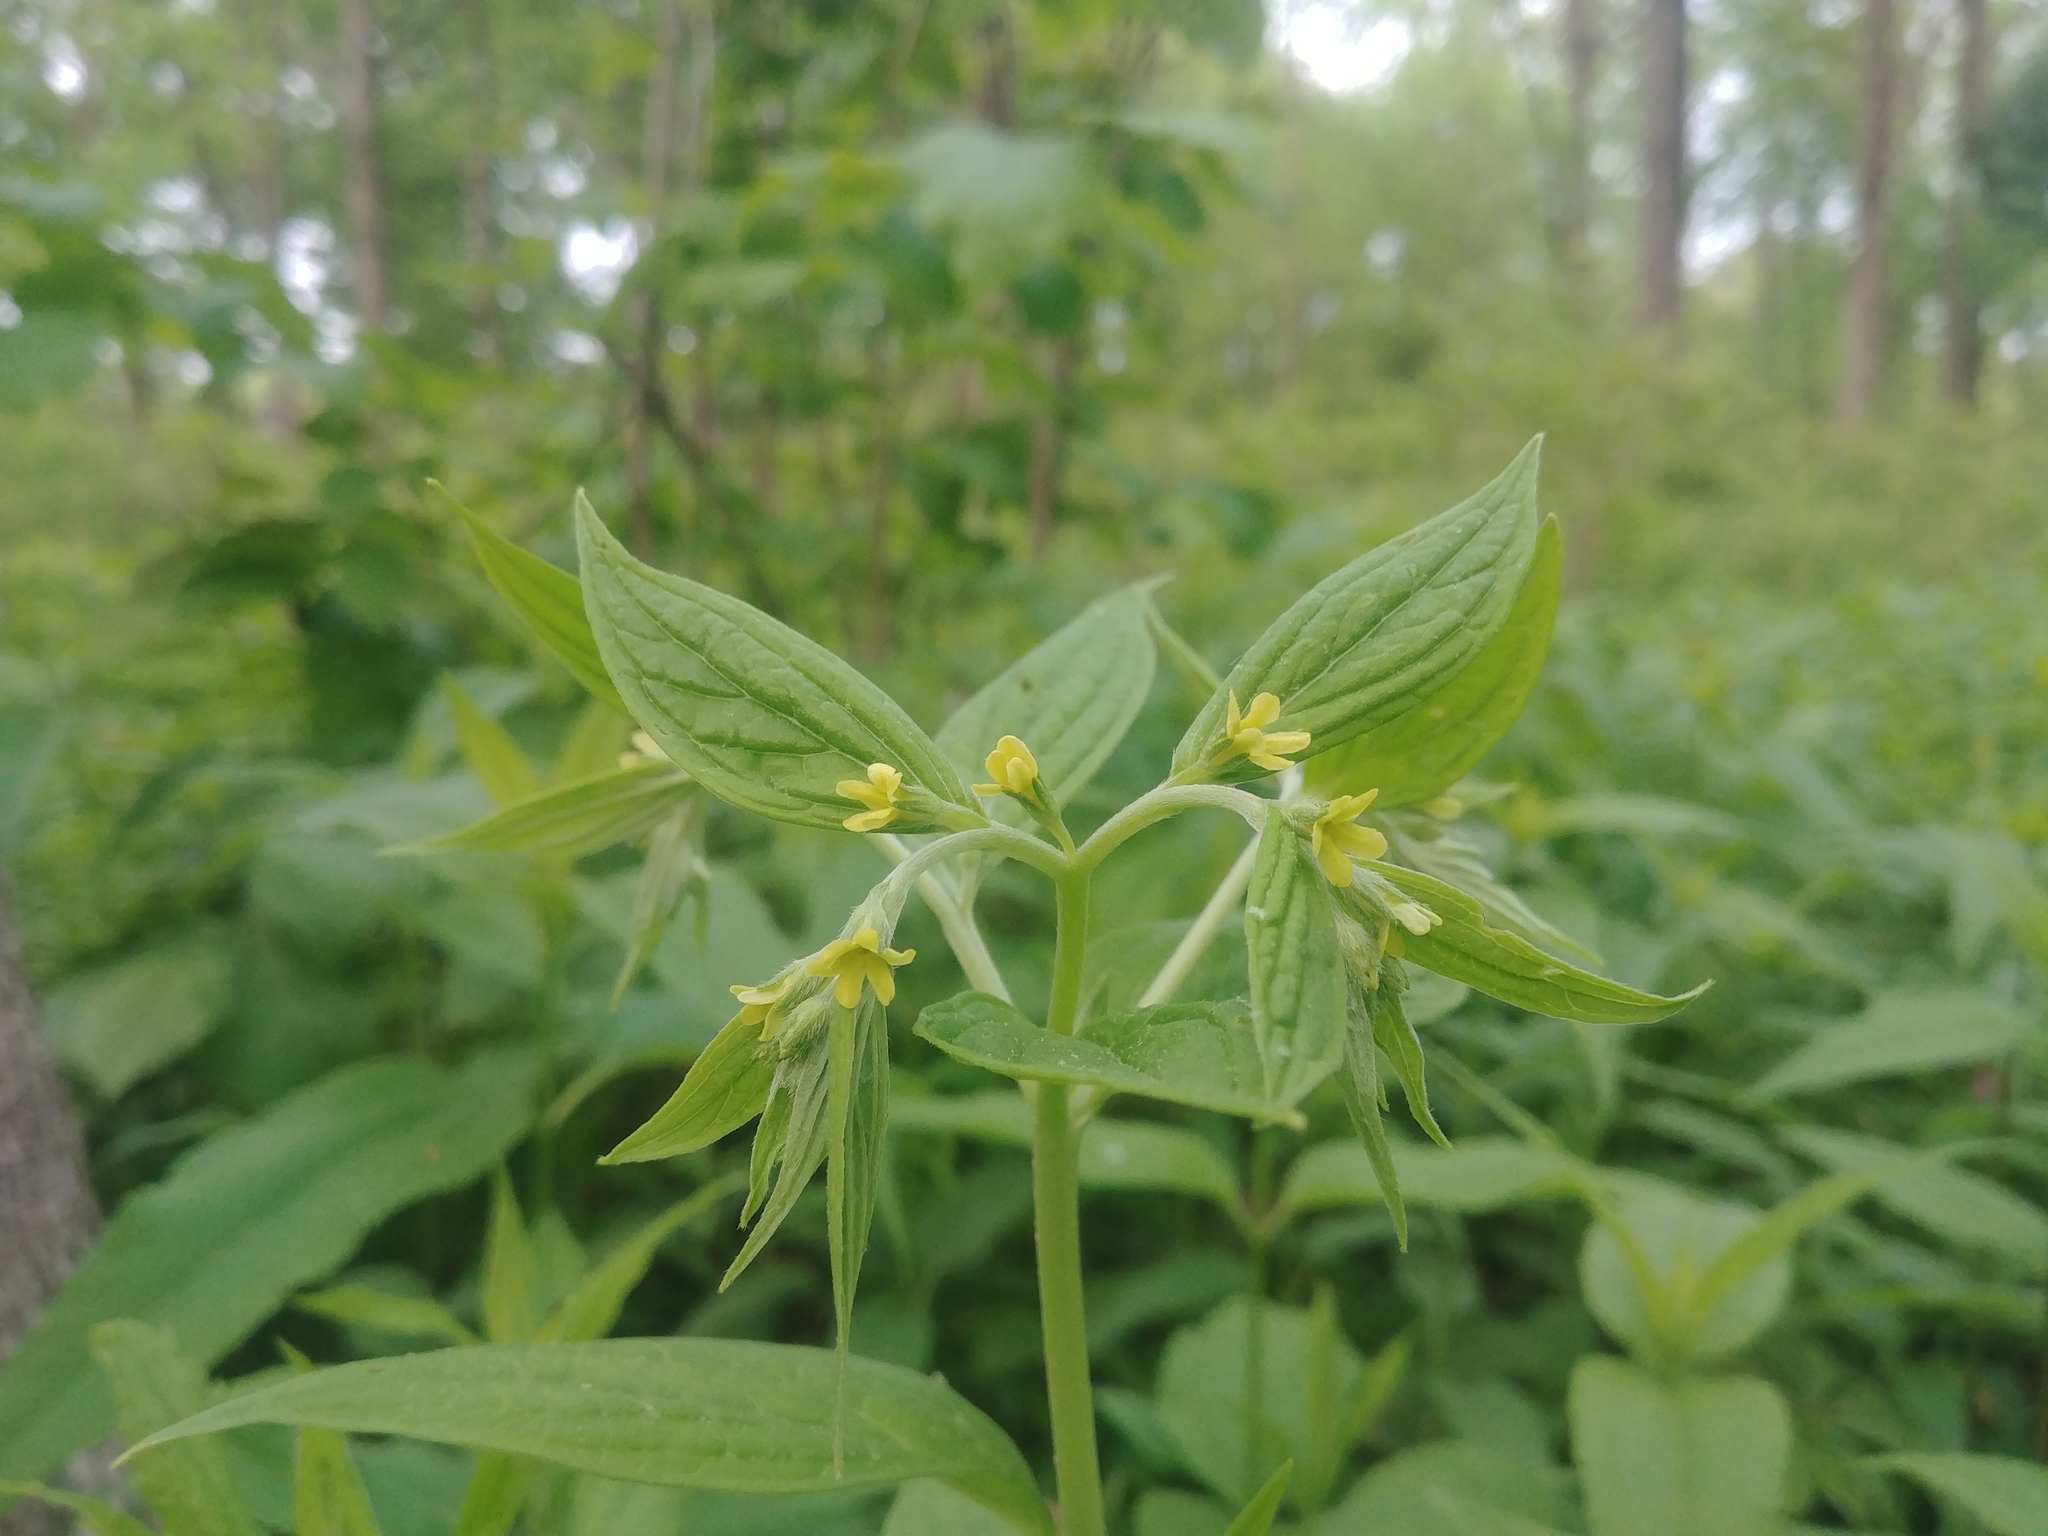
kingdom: Plantae
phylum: Tracheophyta
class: Magnoliopsida
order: Boraginales
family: Boraginaceae
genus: Lithospermum
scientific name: Lithospermum latifolium
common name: American gromwell
